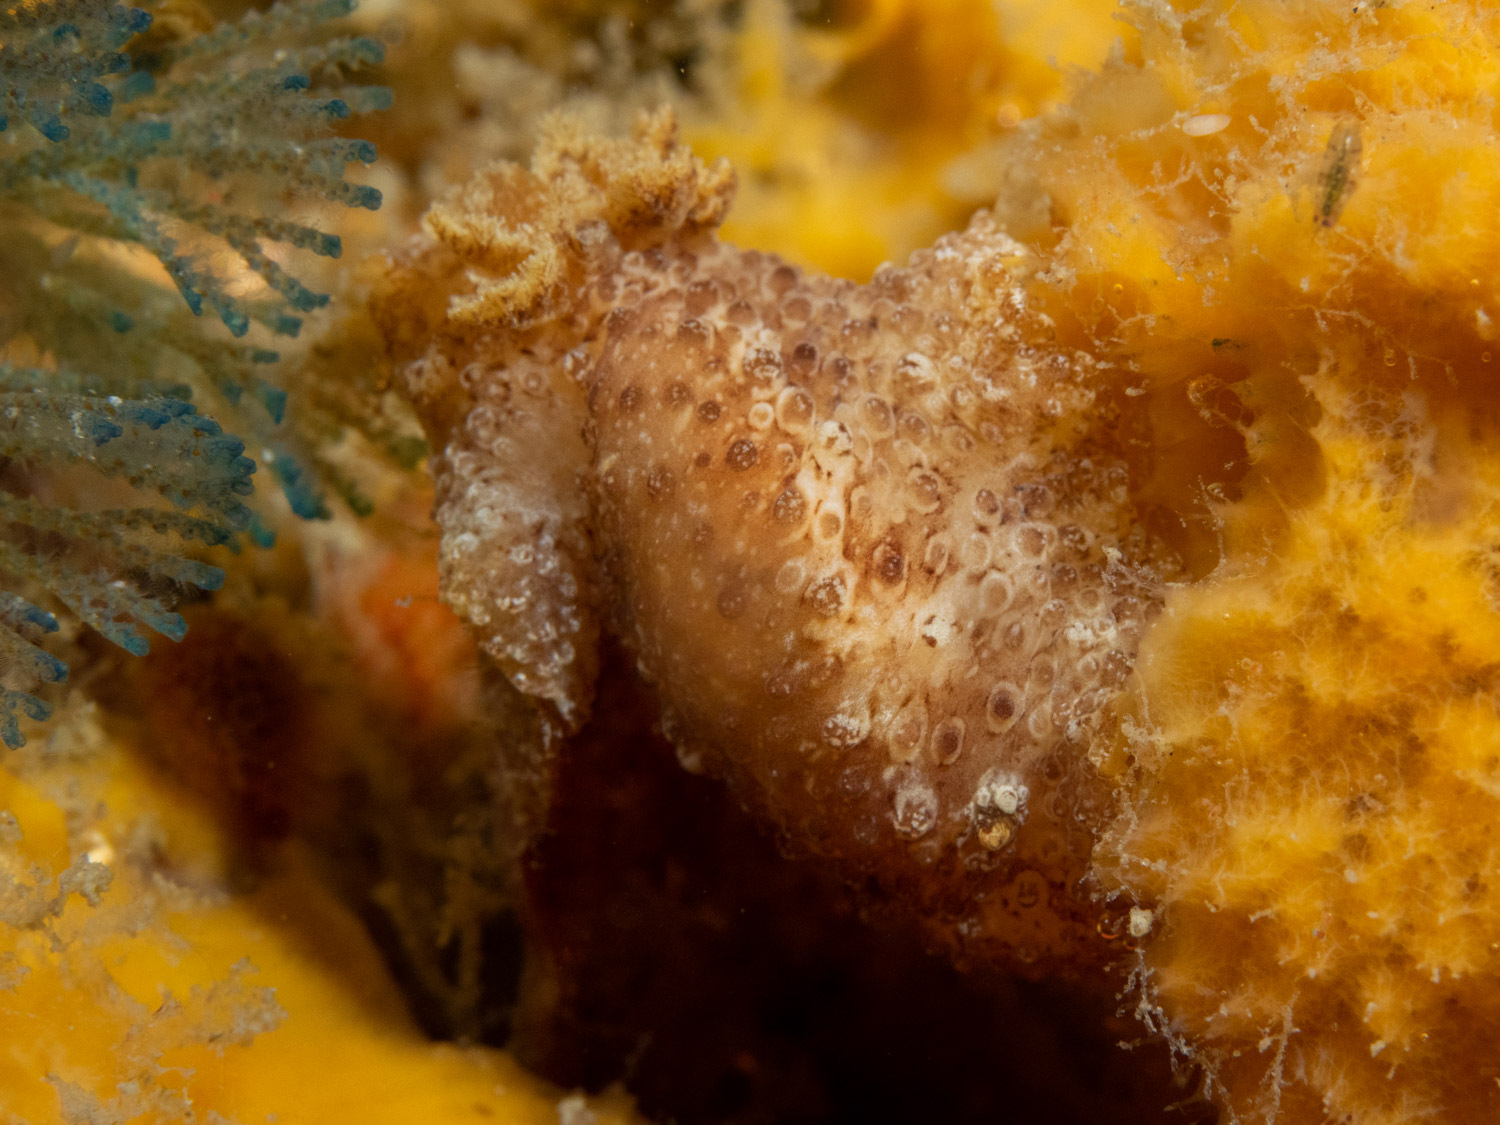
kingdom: Animalia
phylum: Mollusca
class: Gastropoda
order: Nudibranchia
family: Discodorididae
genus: Carminodoris
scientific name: Carminodoris nodulosa
